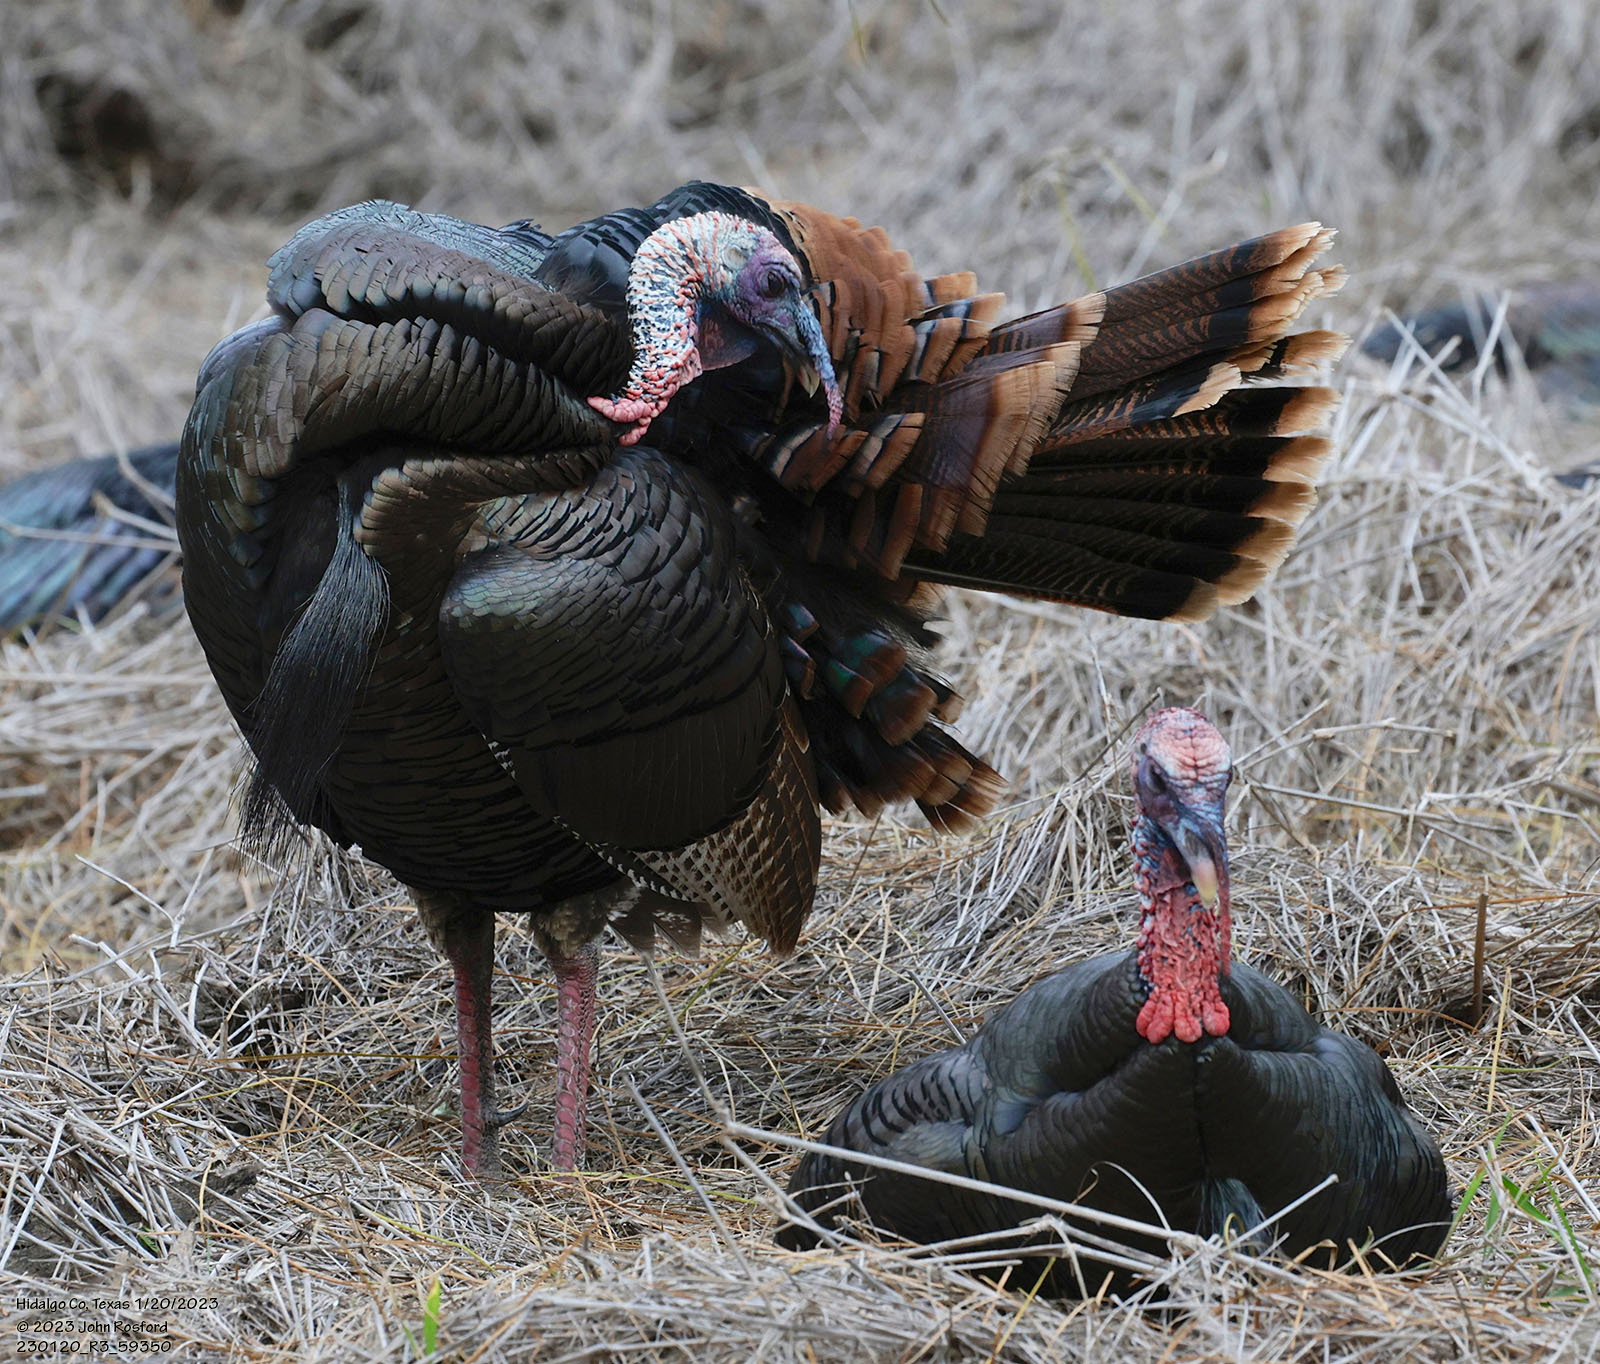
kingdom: Animalia
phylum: Chordata
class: Aves
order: Galliformes
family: Phasianidae
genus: Meleagris
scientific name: Meleagris gallopavo
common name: Wild turkey
